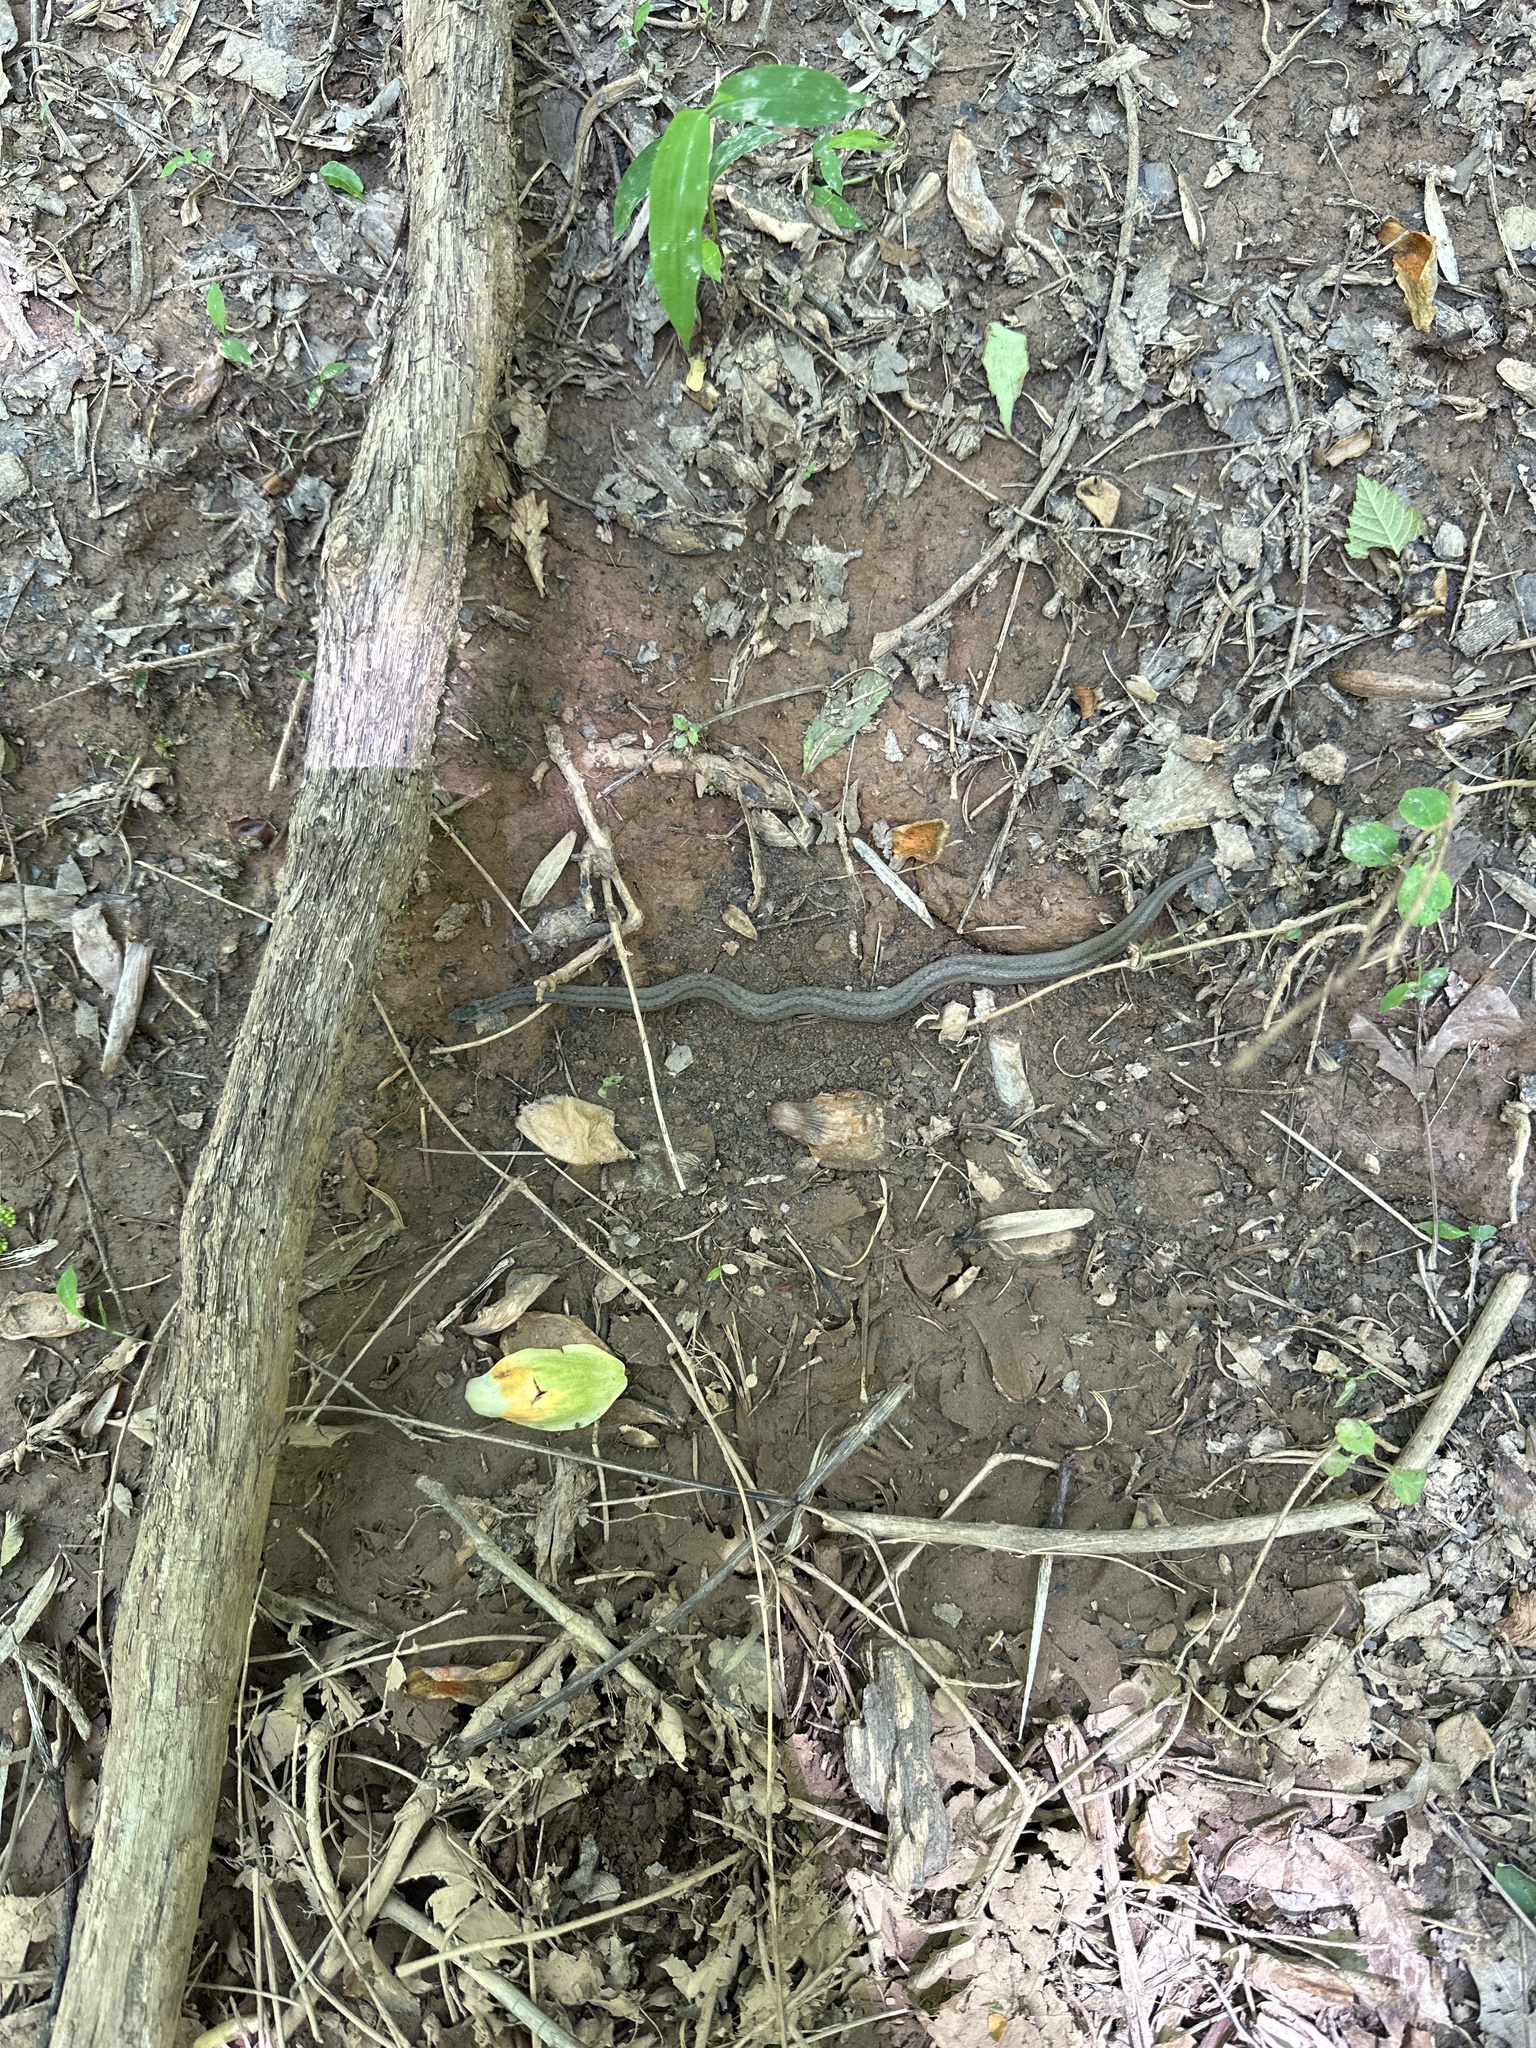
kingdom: Animalia
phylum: Chordata
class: Squamata
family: Colubridae
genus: Storeria
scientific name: Storeria dekayi
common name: (dekay’s) brown snake
